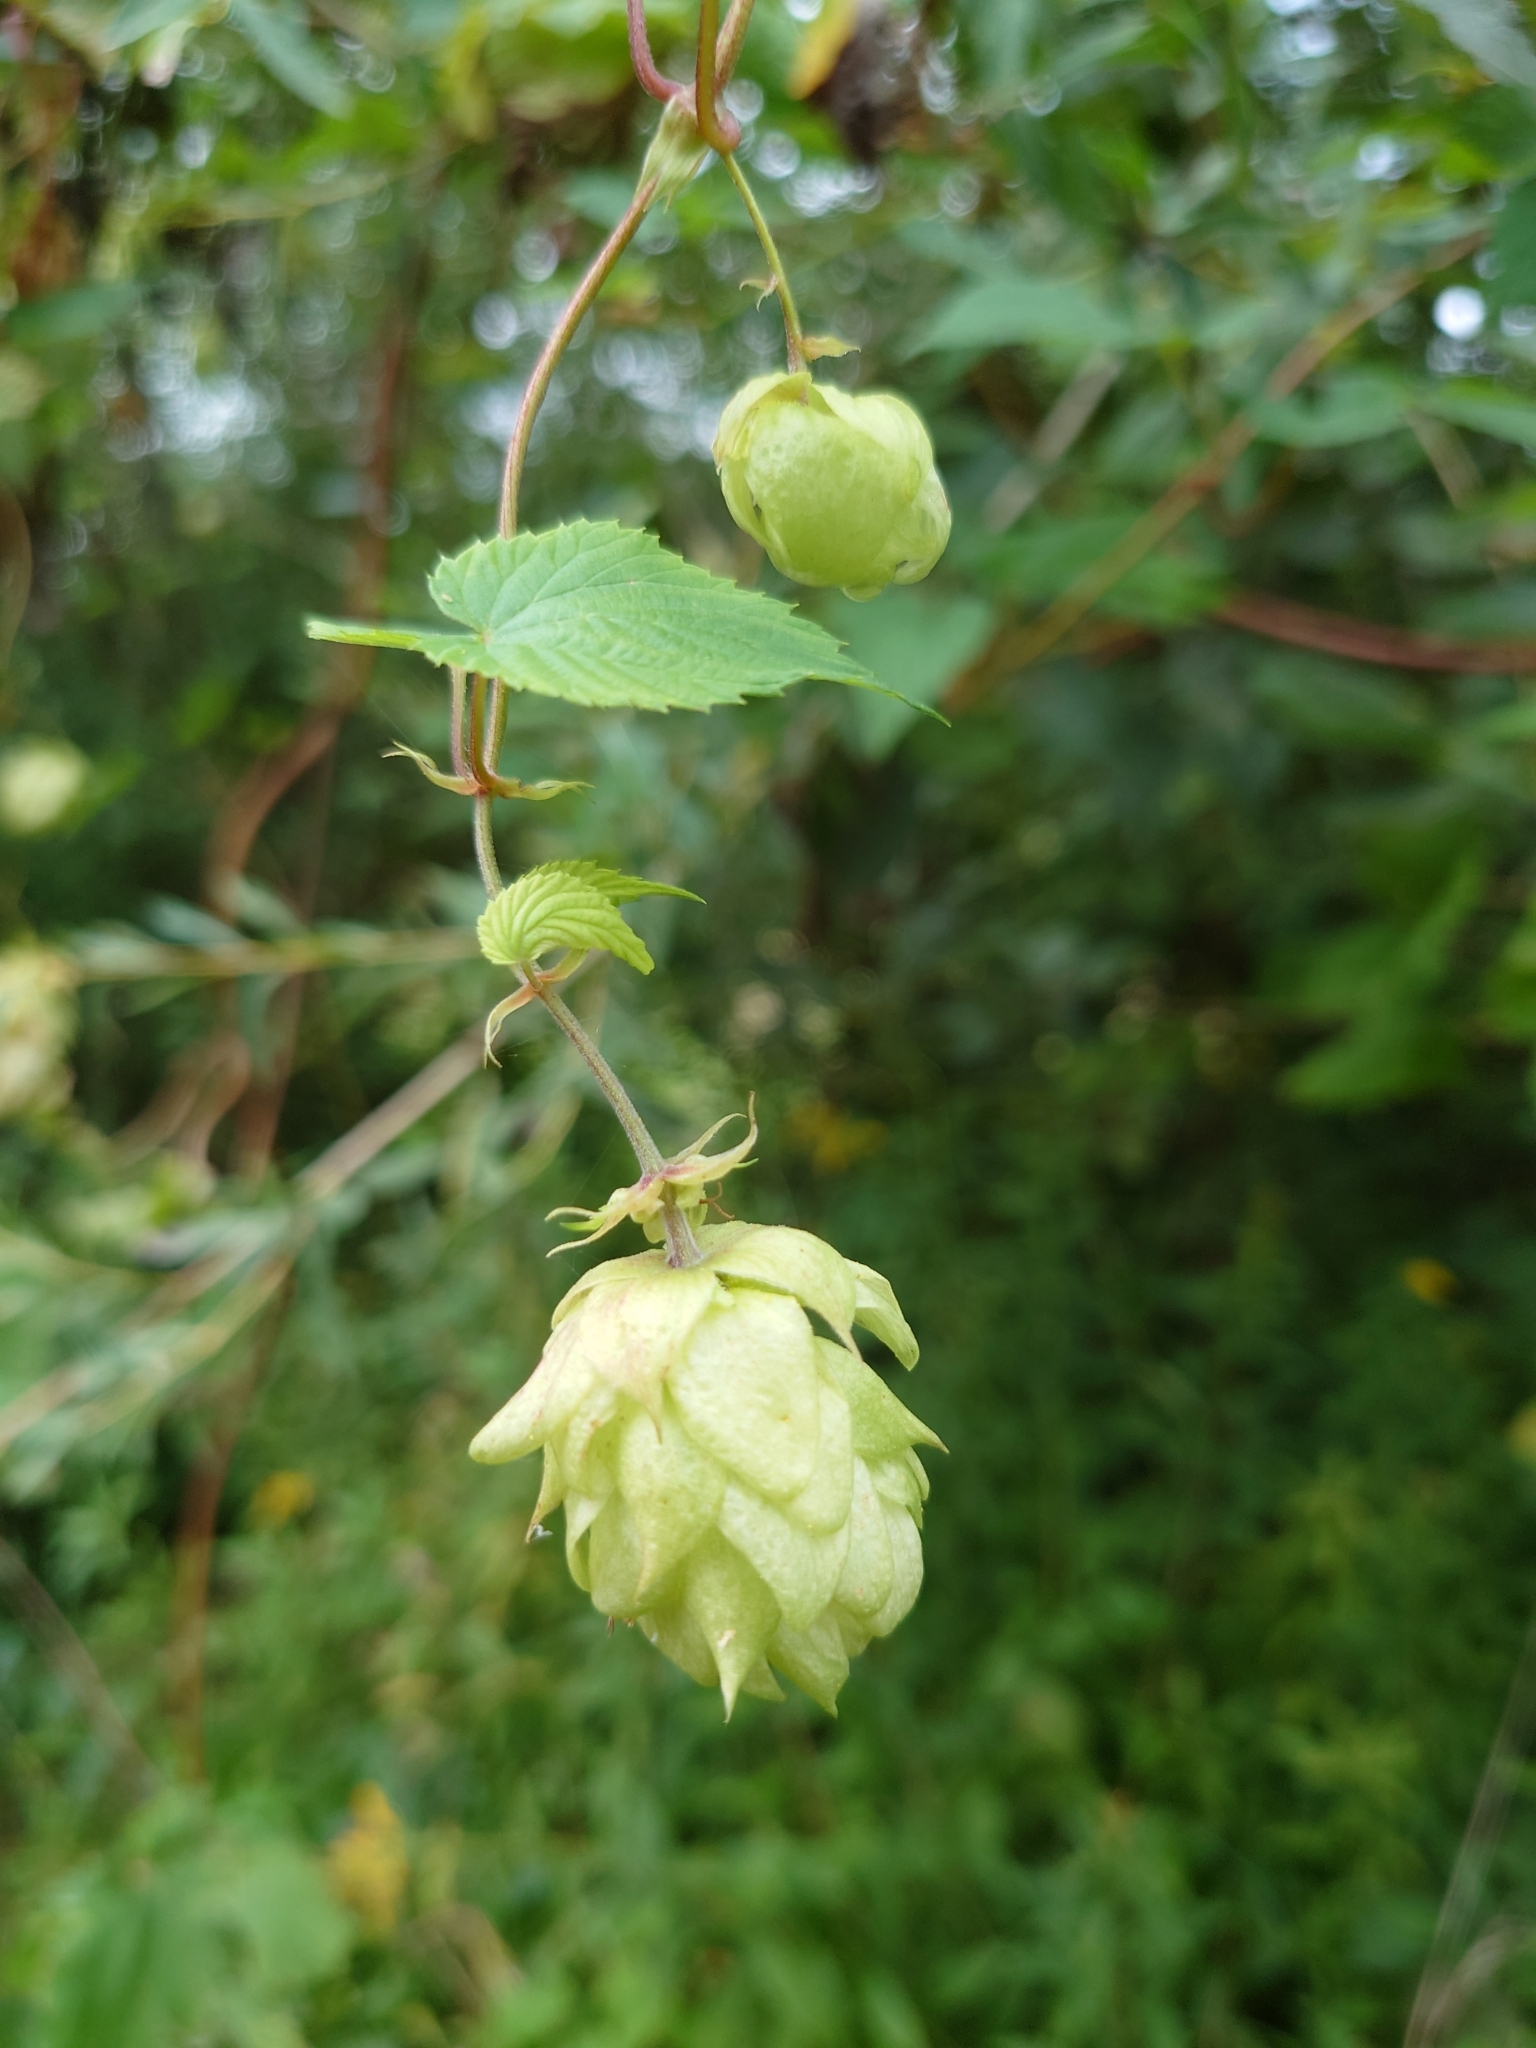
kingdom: Plantae
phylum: Tracheophyta
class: Magnoliopsida
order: Rosales
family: Cannabaceae
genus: Humulus
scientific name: Humulus lupulus
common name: Hop
